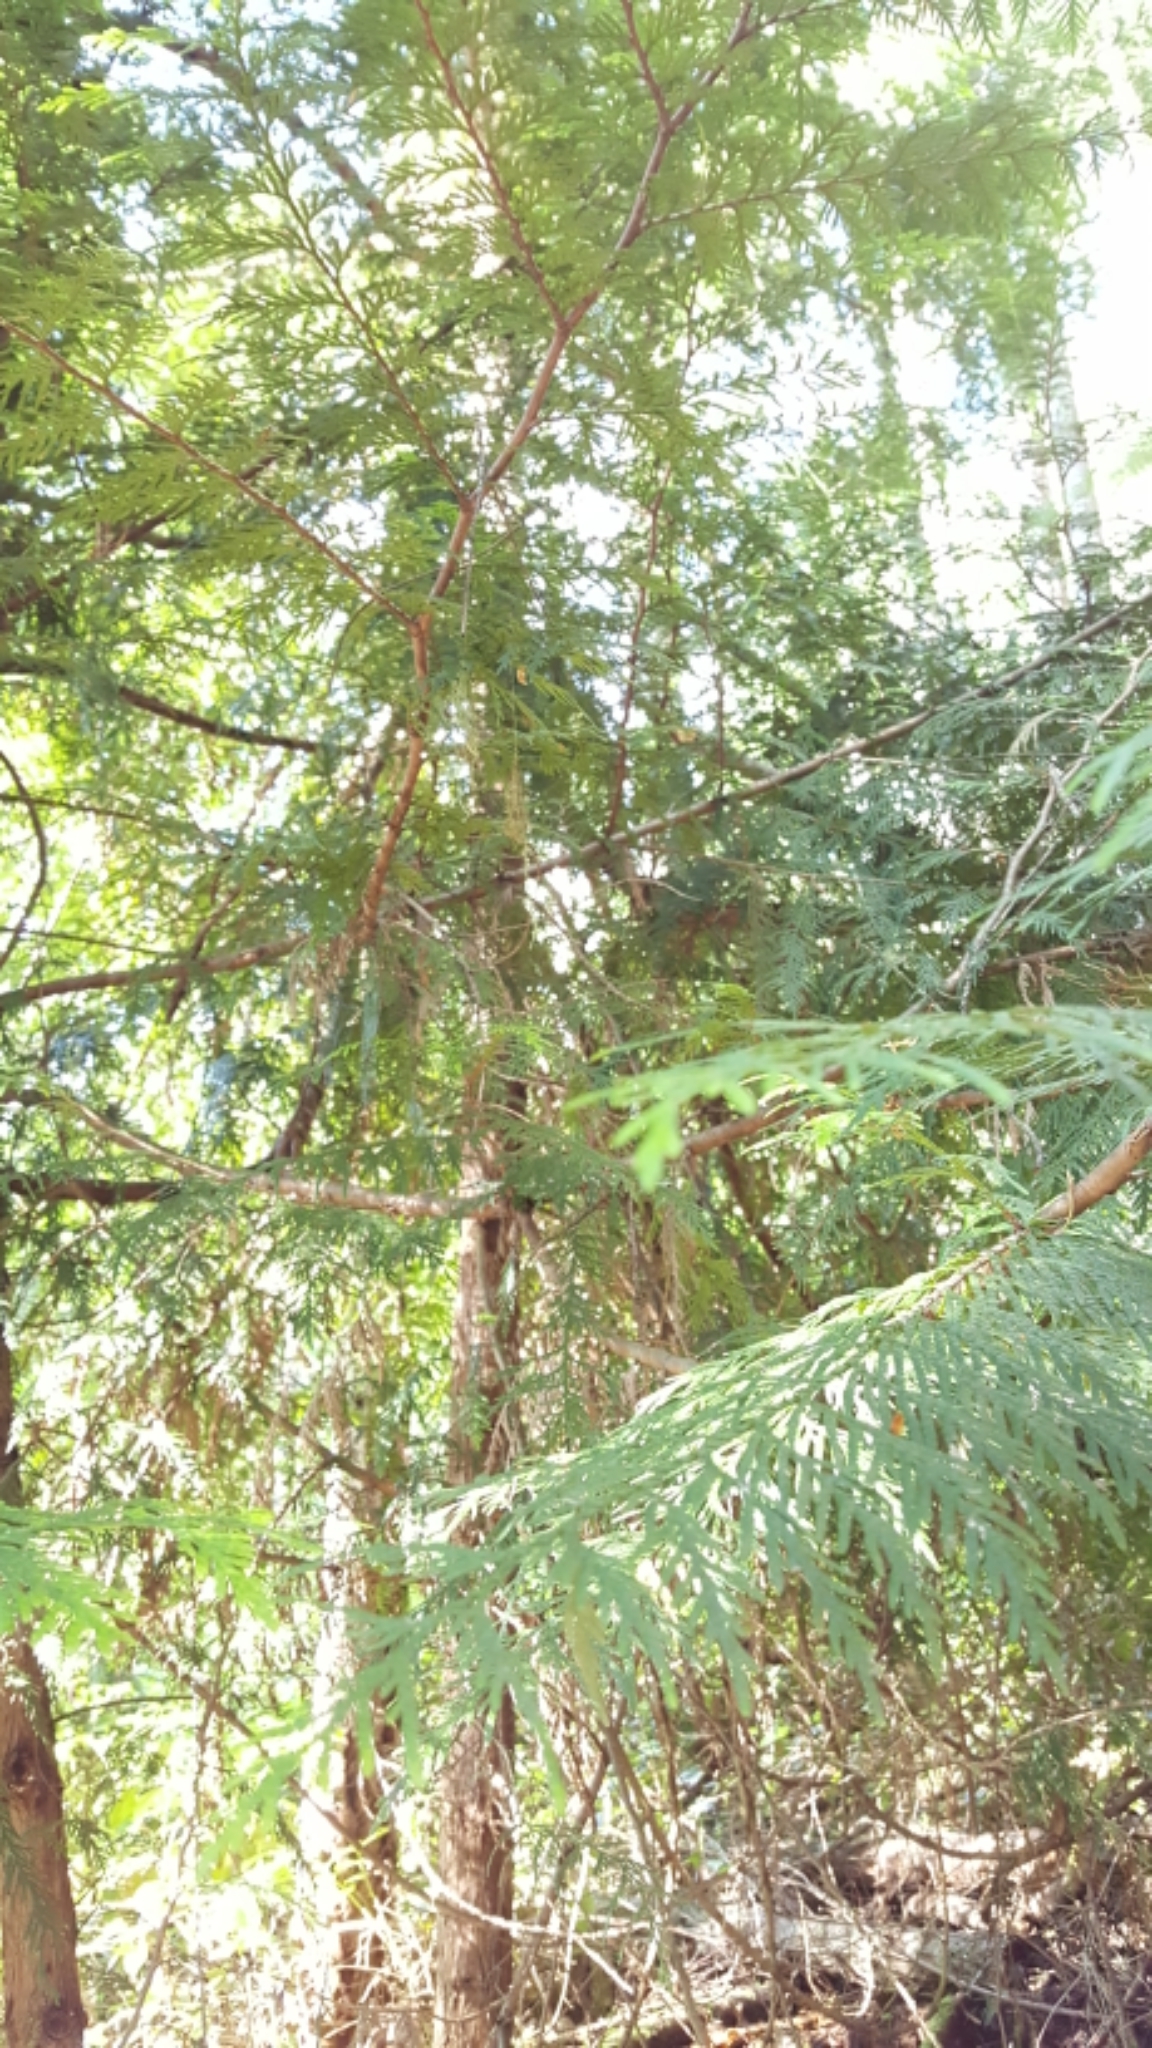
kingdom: Plantae
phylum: Tracheophyta
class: Pinopsida
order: Pinales
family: Cupressaceae
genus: Thuja
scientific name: Thuja plicata
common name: Western red-cedar
